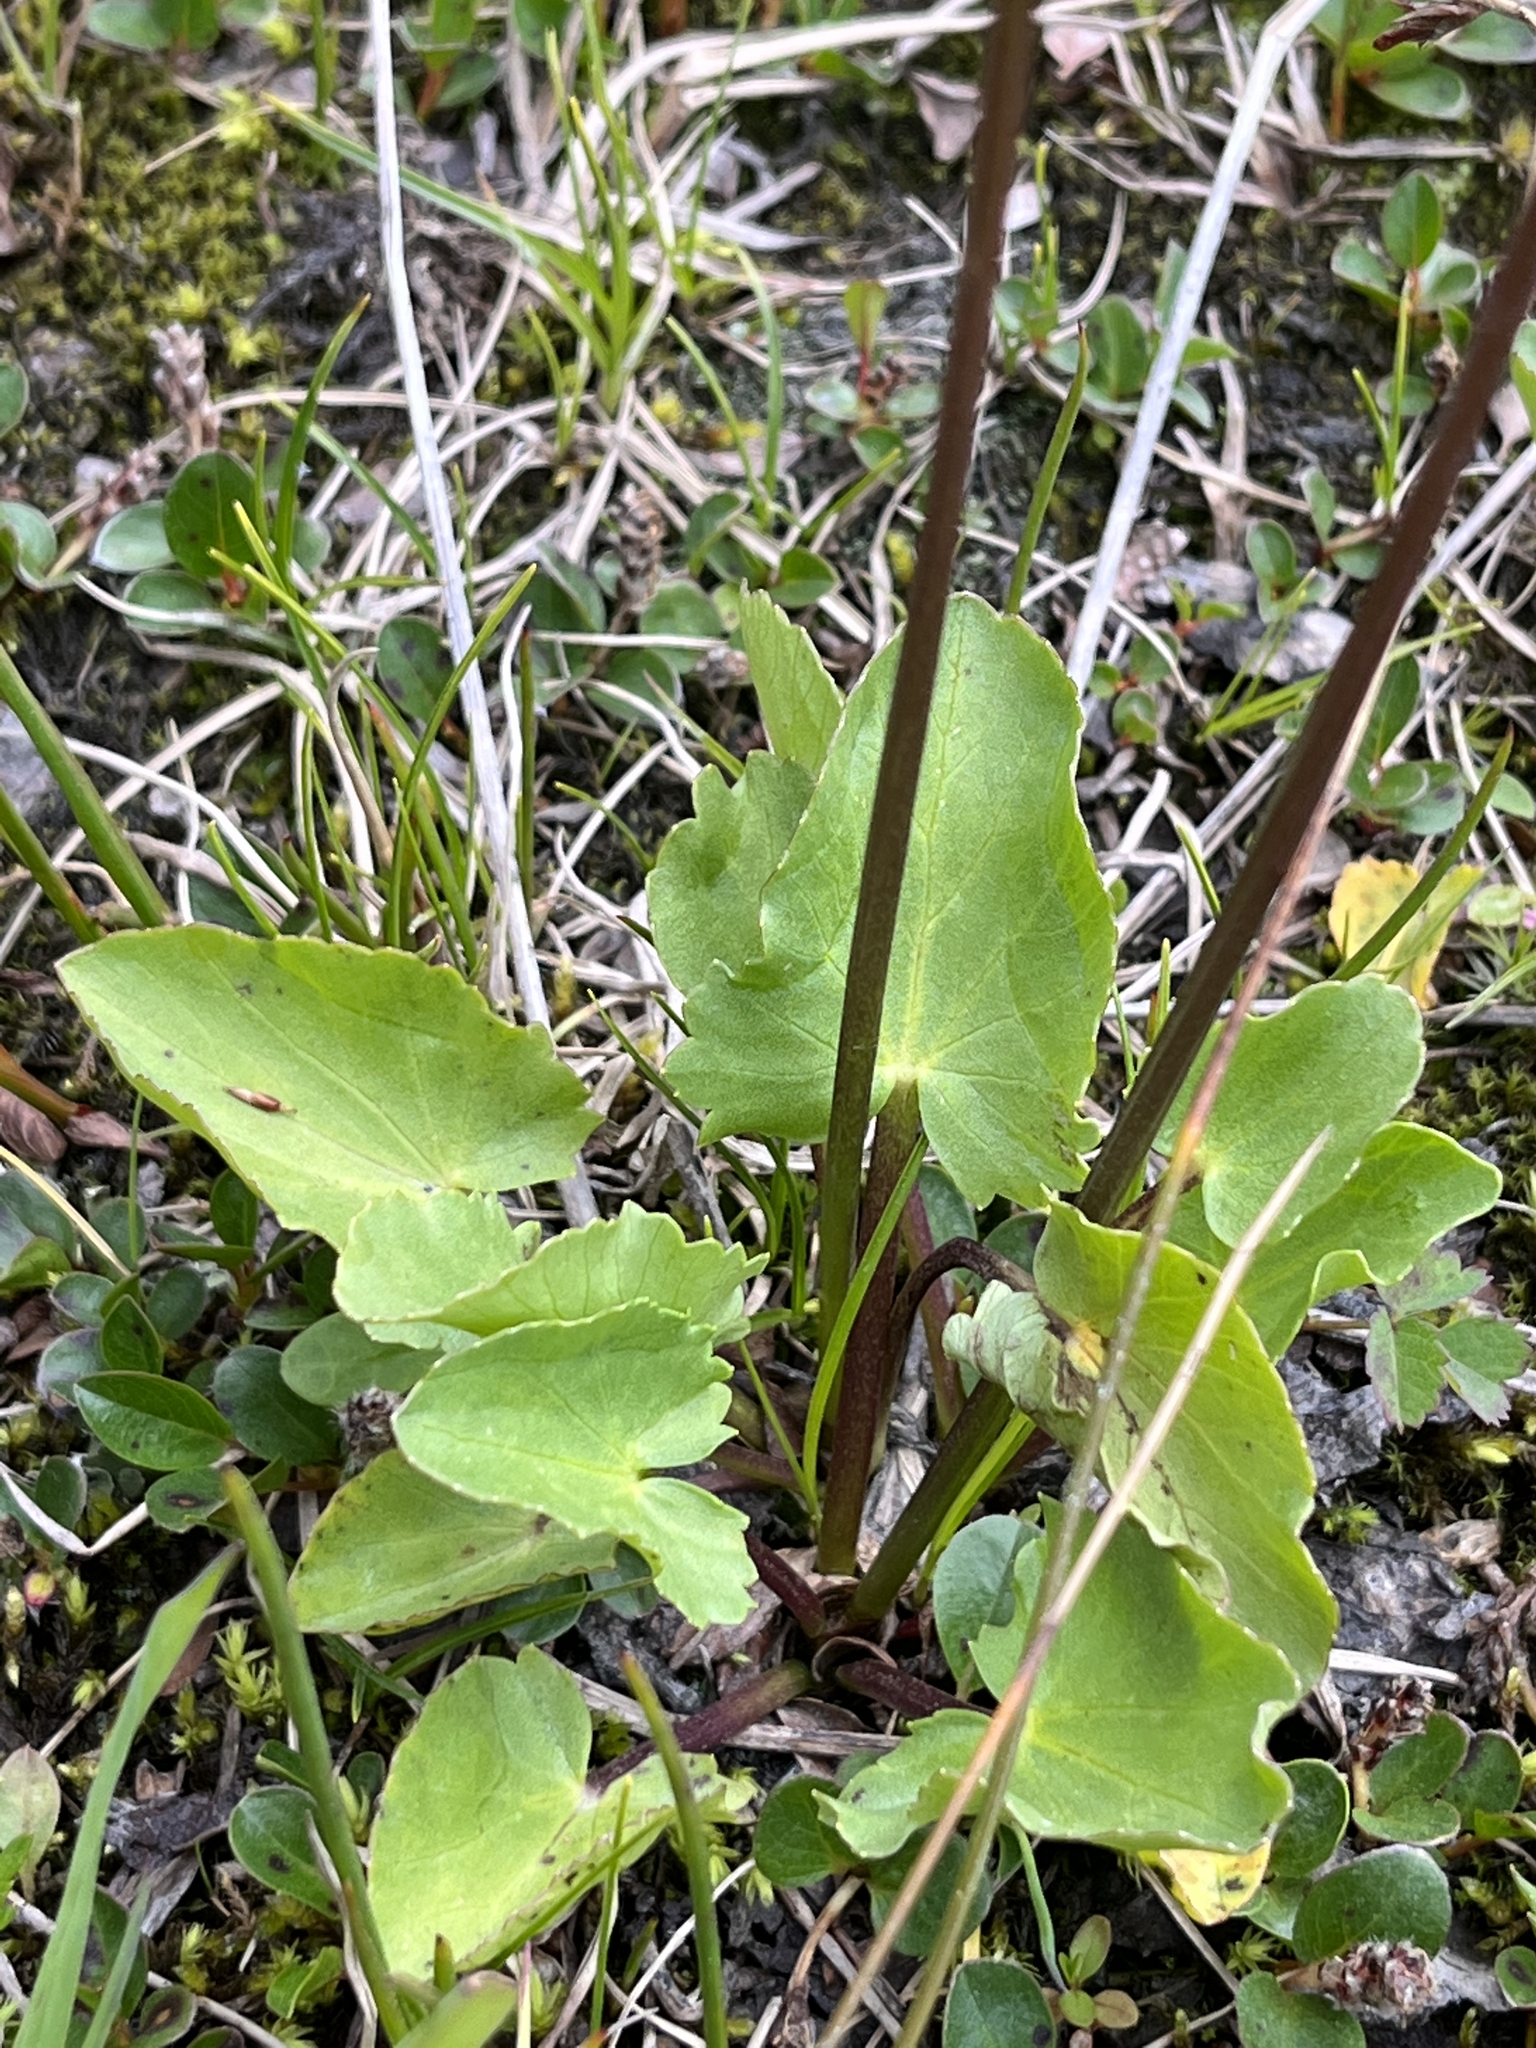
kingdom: Plantae
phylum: Tracheophyta
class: Magnoliopsida
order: Ranunculales
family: Ranunculaceae
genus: Caltha
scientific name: Caltha leptosepala
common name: Elkslip
